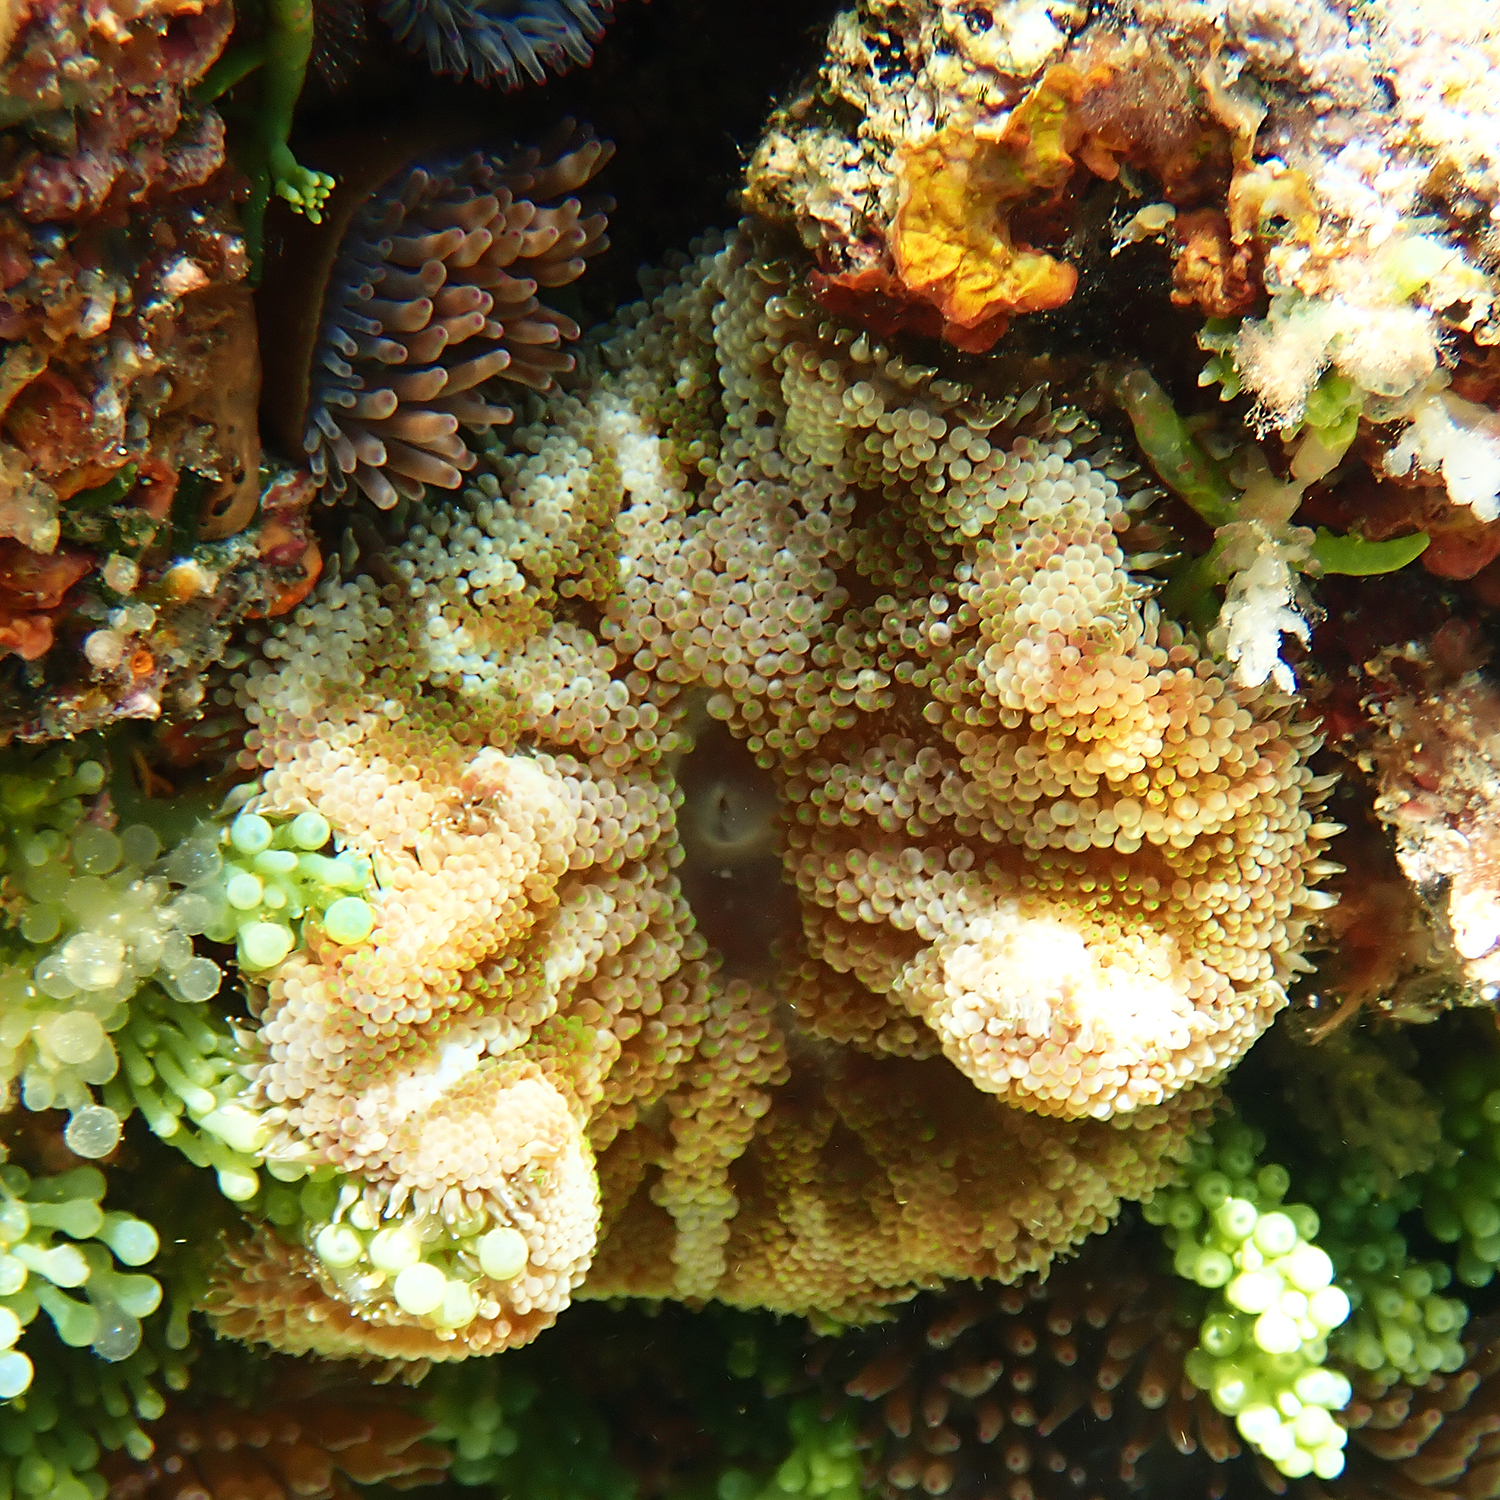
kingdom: Animalia
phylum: Cnidaria
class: Anthozoa
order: Actiniaria
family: Stichodactylidae
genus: Stichodactyla
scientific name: Stichodactyla tapetum
